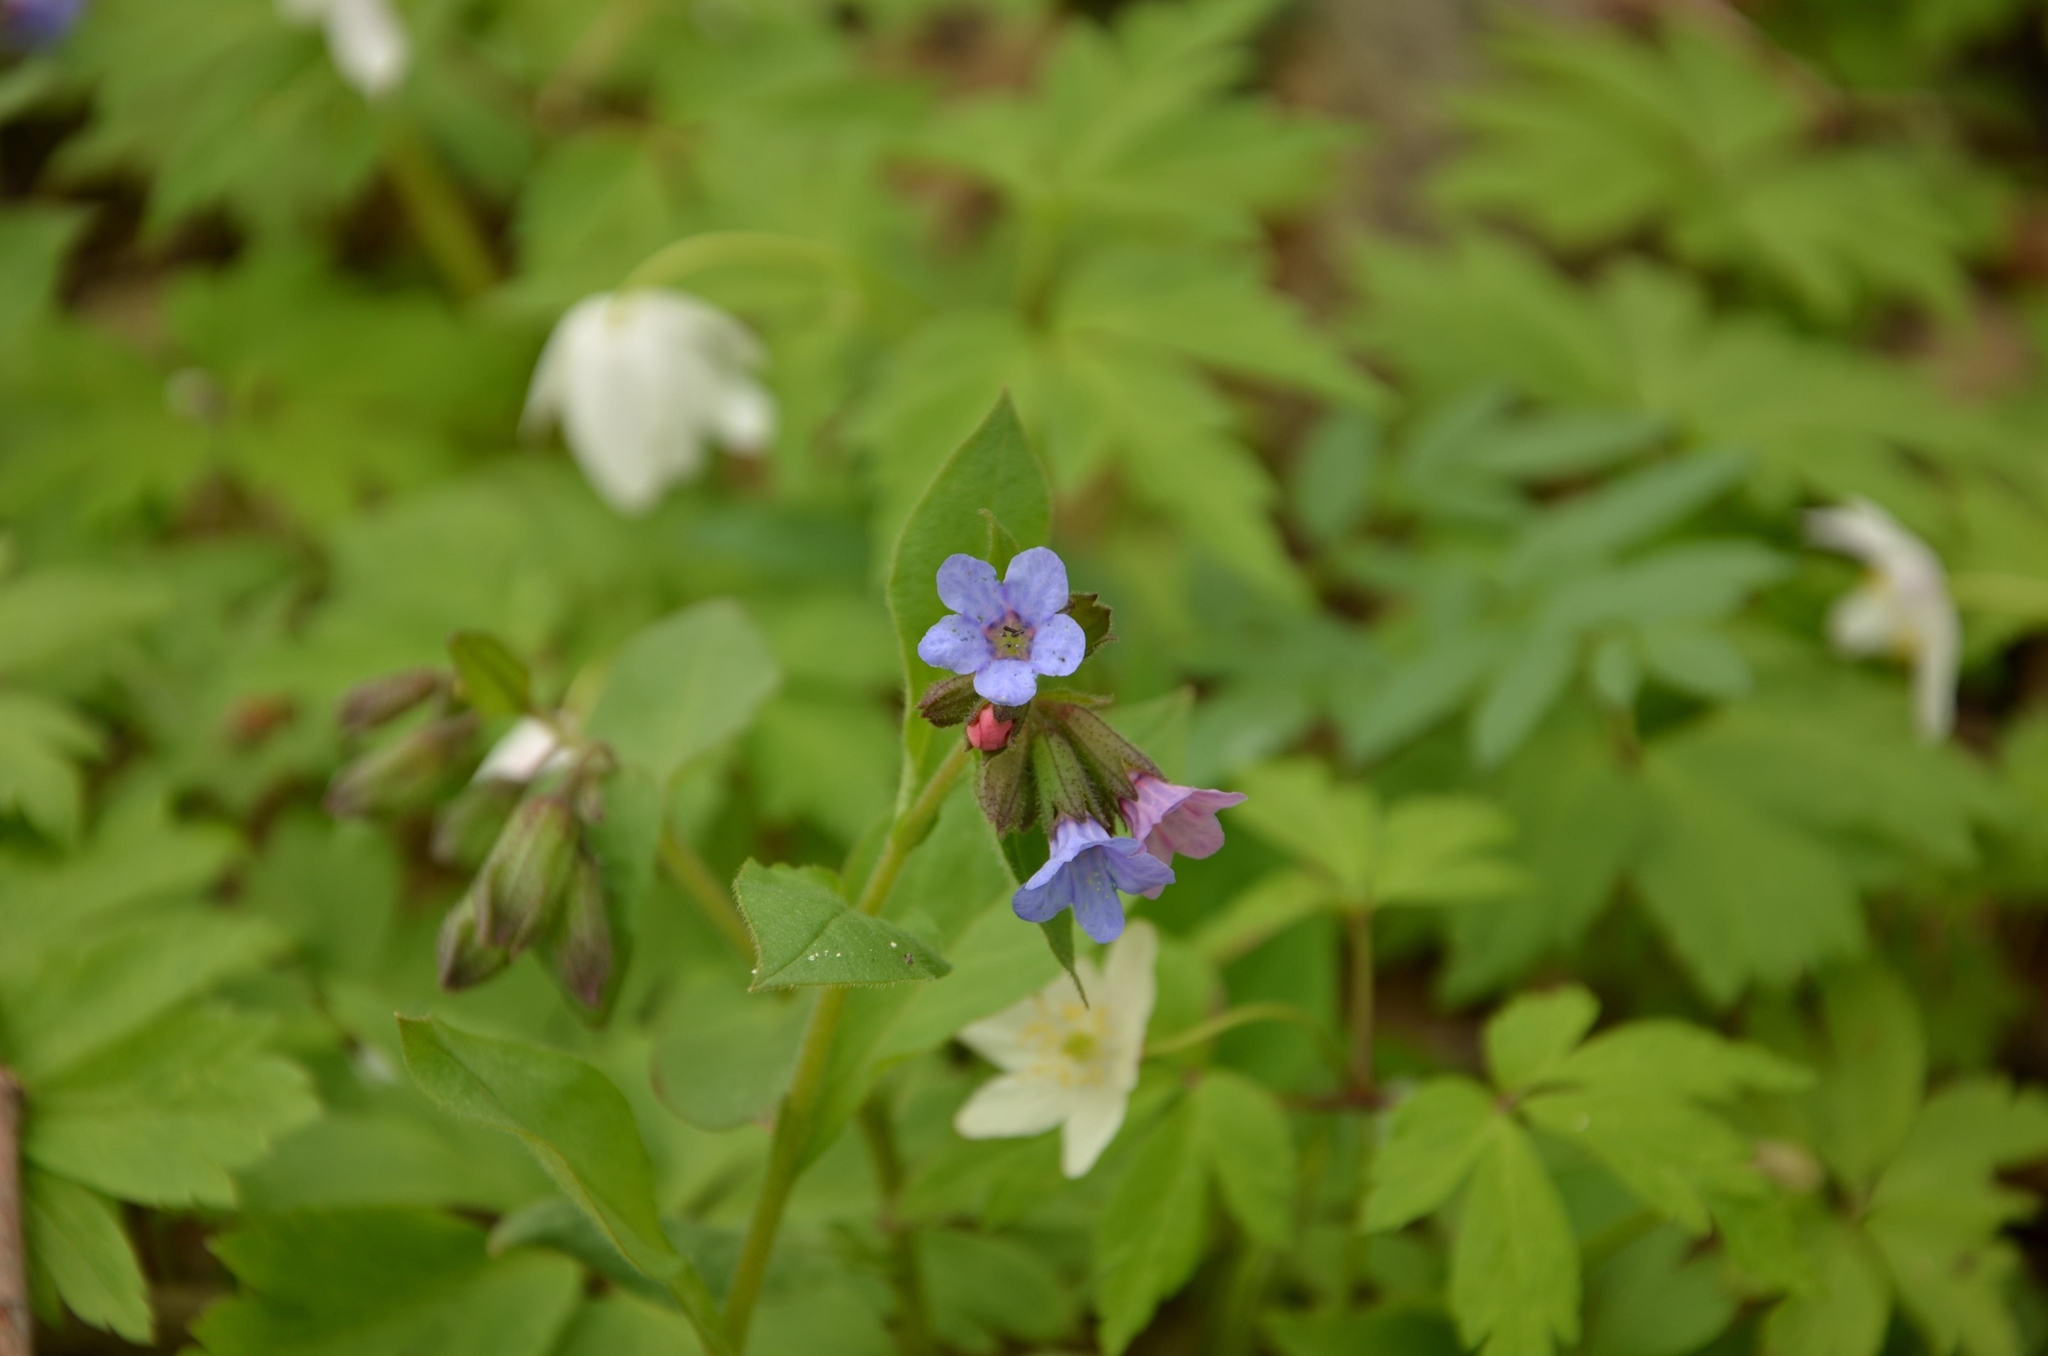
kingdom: Plantae
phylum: Tracheophyta
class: Magnoliopsida
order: Boraginales
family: Boraginaceae
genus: Pulmonaria
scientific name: Pulmonaria obscura
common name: Suffolk lungwort
